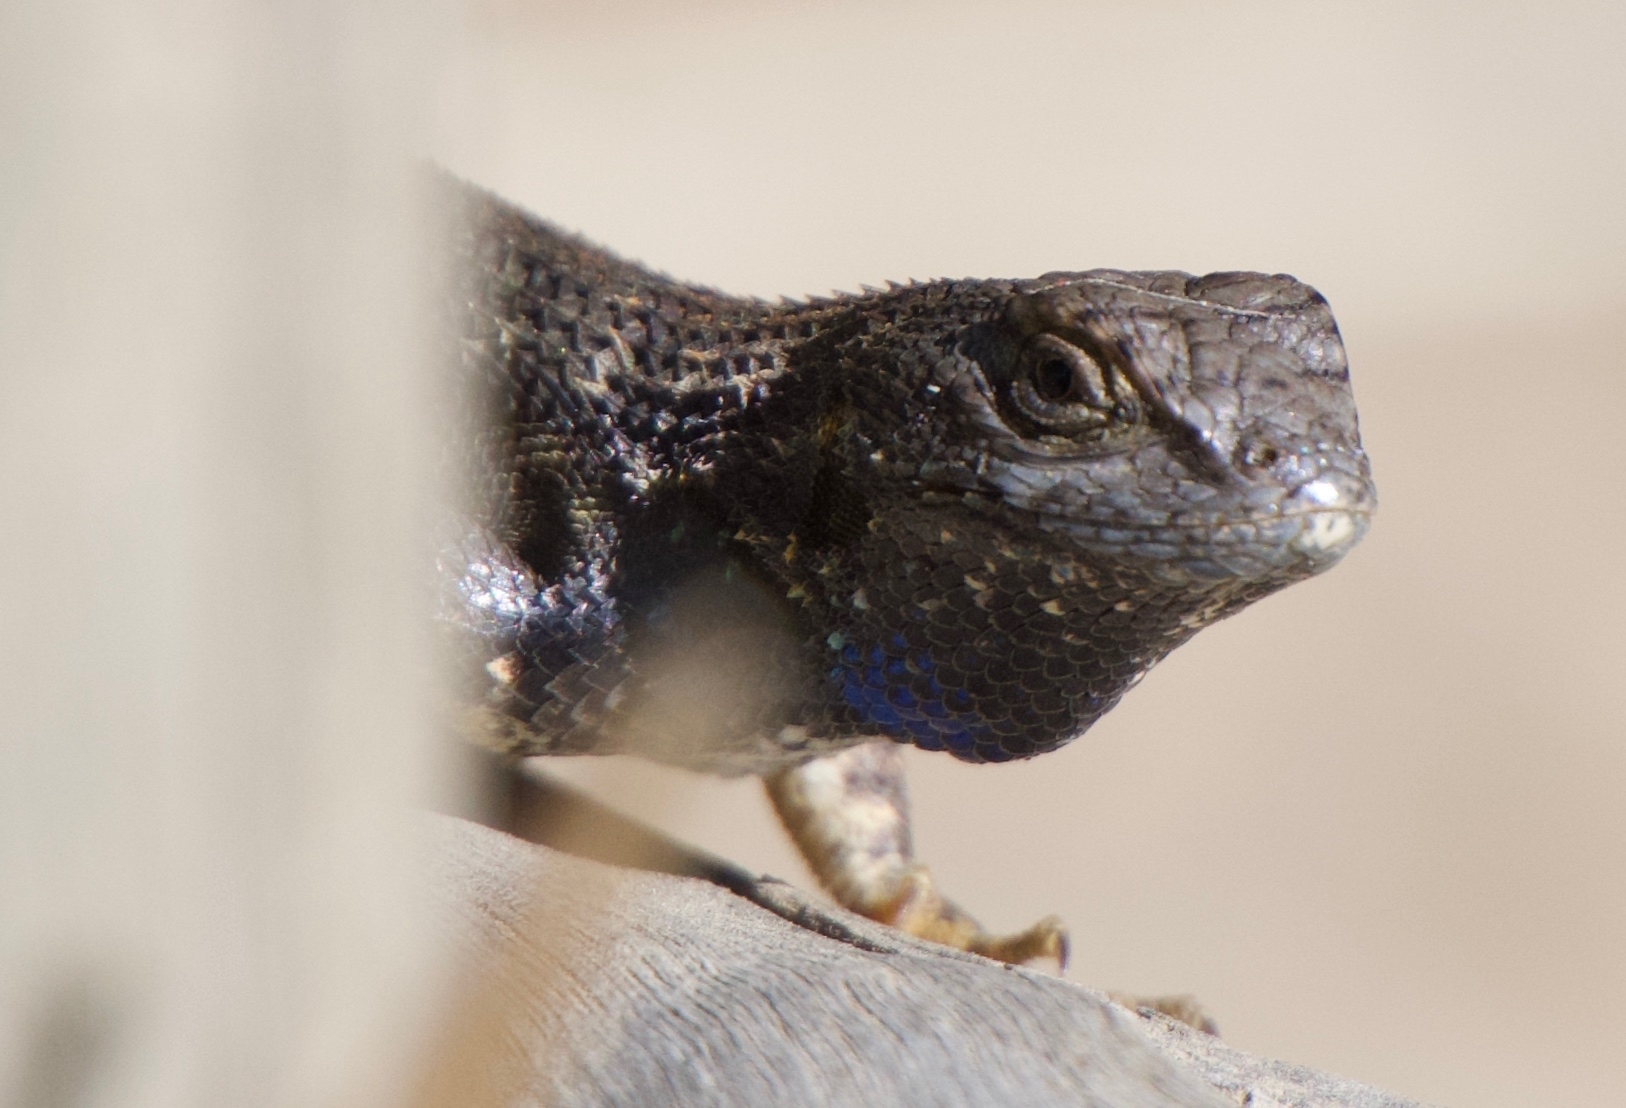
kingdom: Animalia
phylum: Chordata
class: Squamata
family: Phrynosomatidae
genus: Sceloporus
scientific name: Sceloporus occidentalis
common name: Western fence lizard
